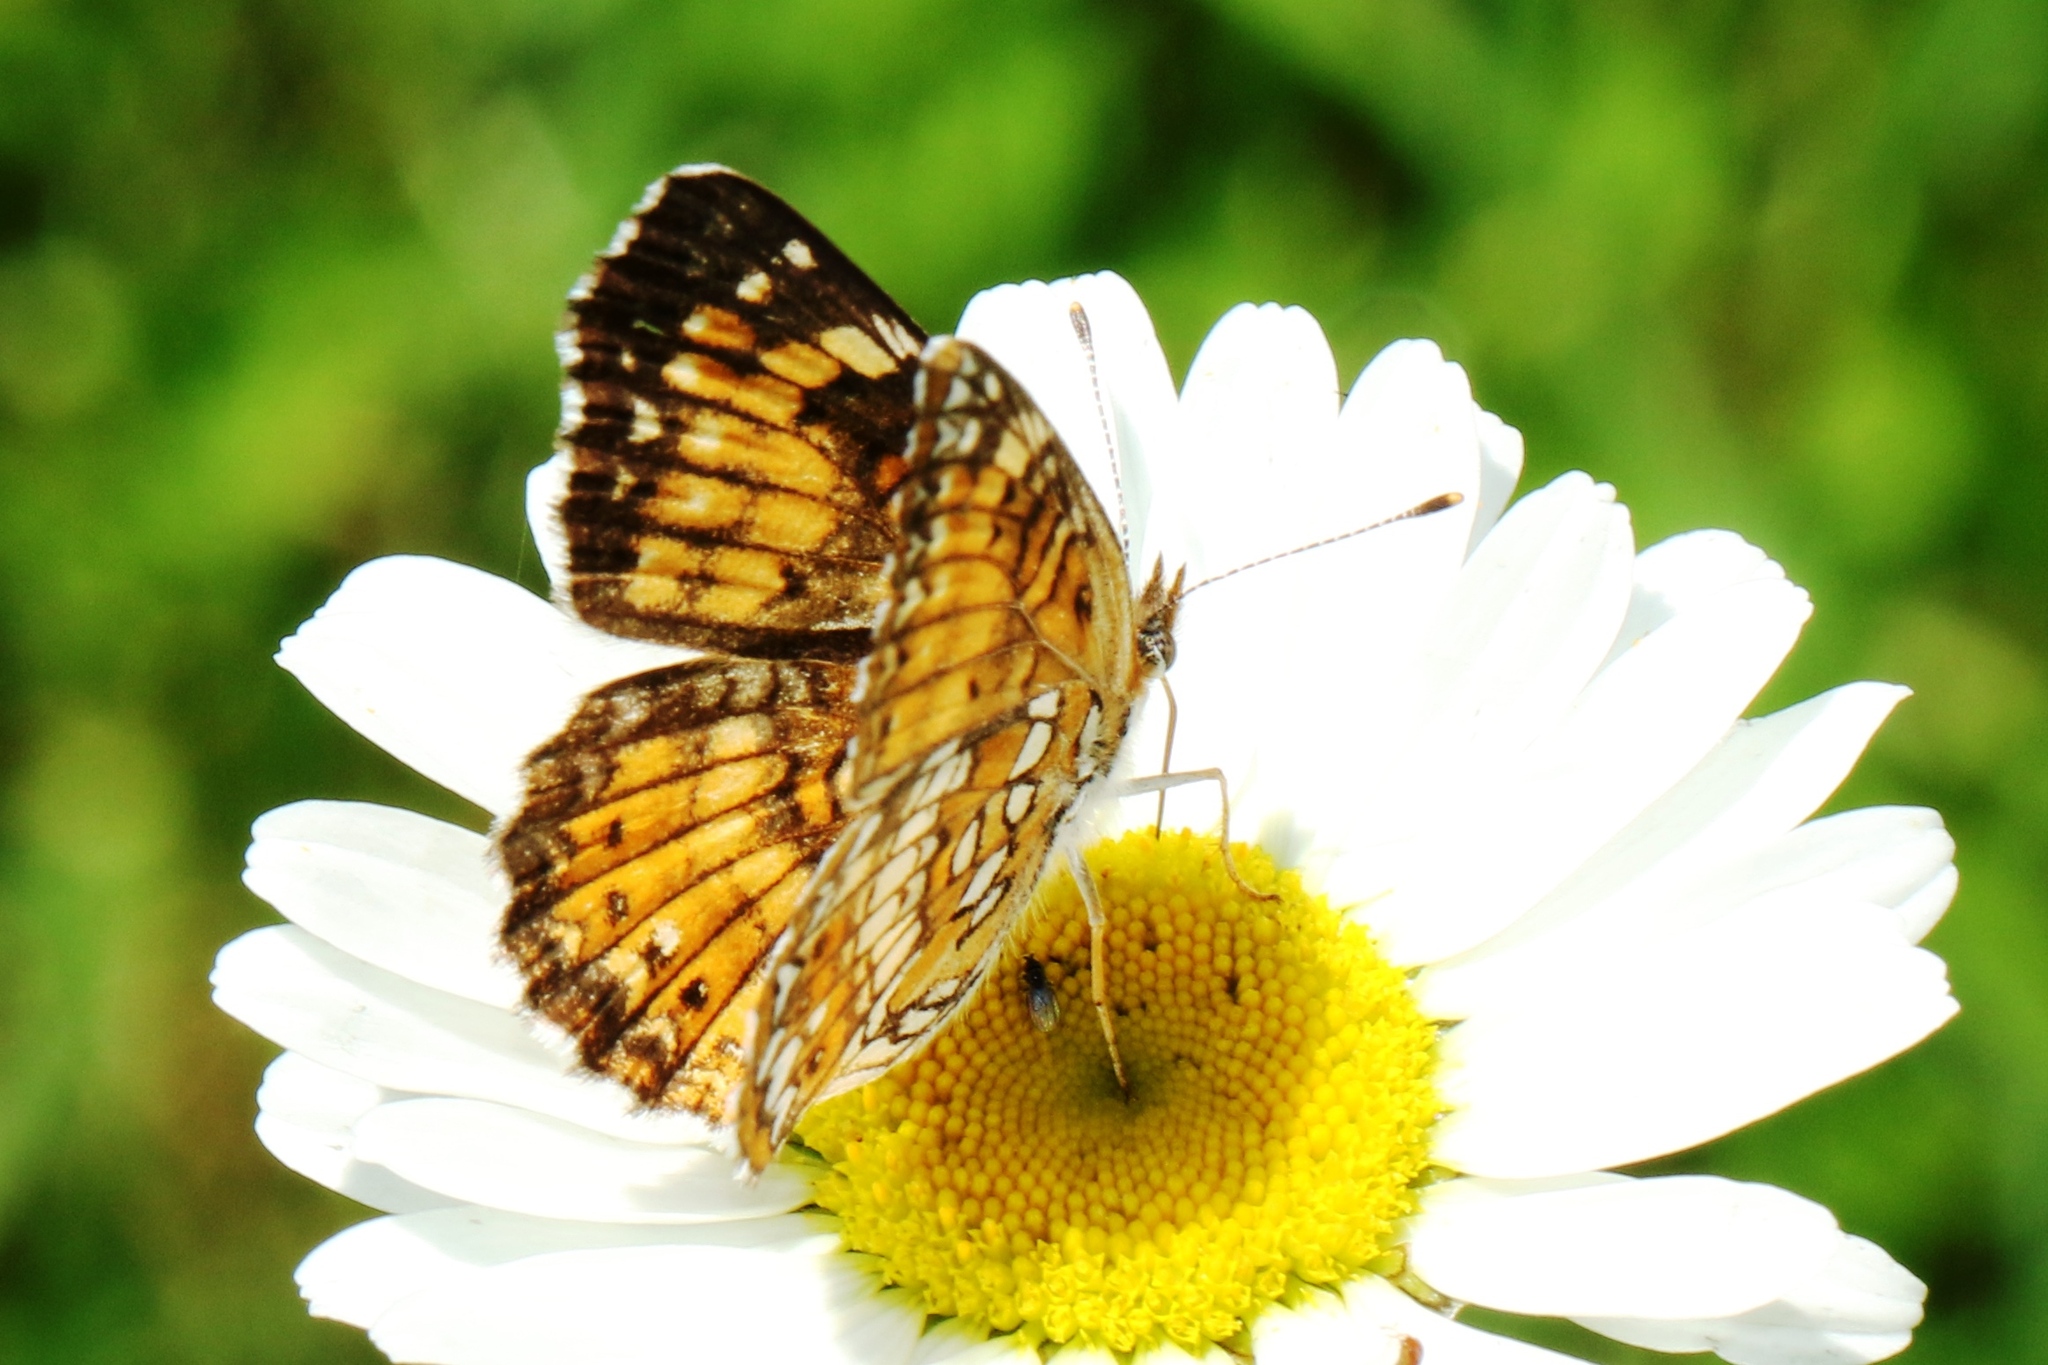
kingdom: Animalia
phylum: Arthropoda
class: Insecta
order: Lepidoptera
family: Nymphalidae
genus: Chlosyne
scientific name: Chlosyne harrisii
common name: Harris's checkerspot
